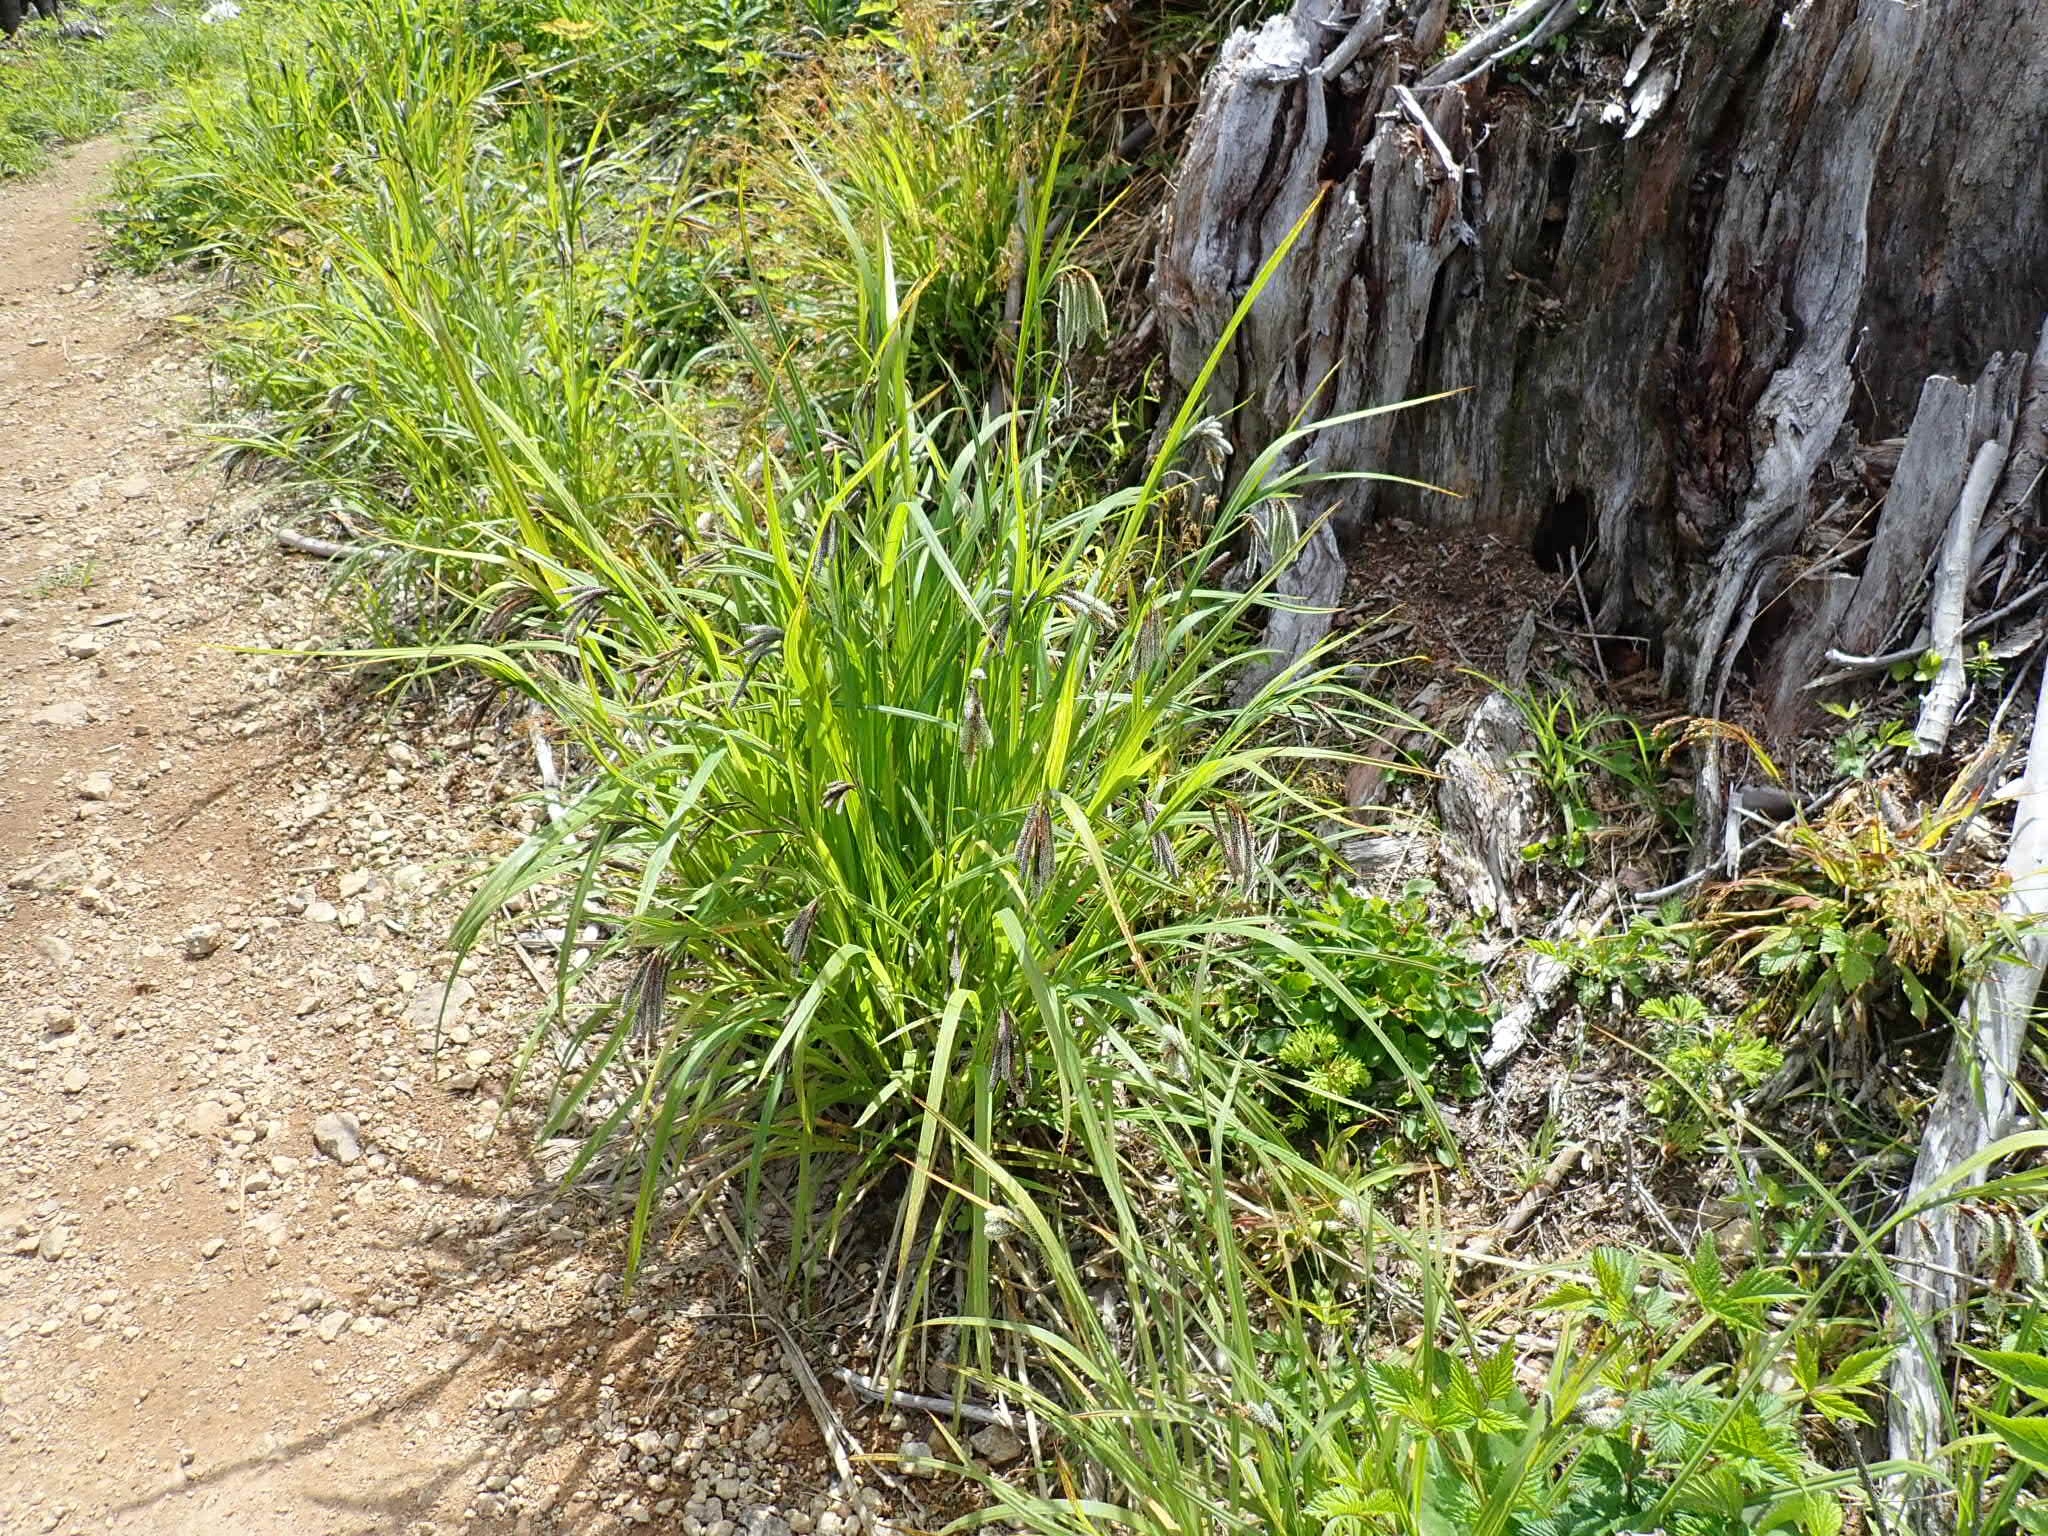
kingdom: Plantae
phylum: Tracheophyta
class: Liliopsida
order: Poales
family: Cyperaceae
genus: Carex
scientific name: Carex mertensii
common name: Mertens' sedge
